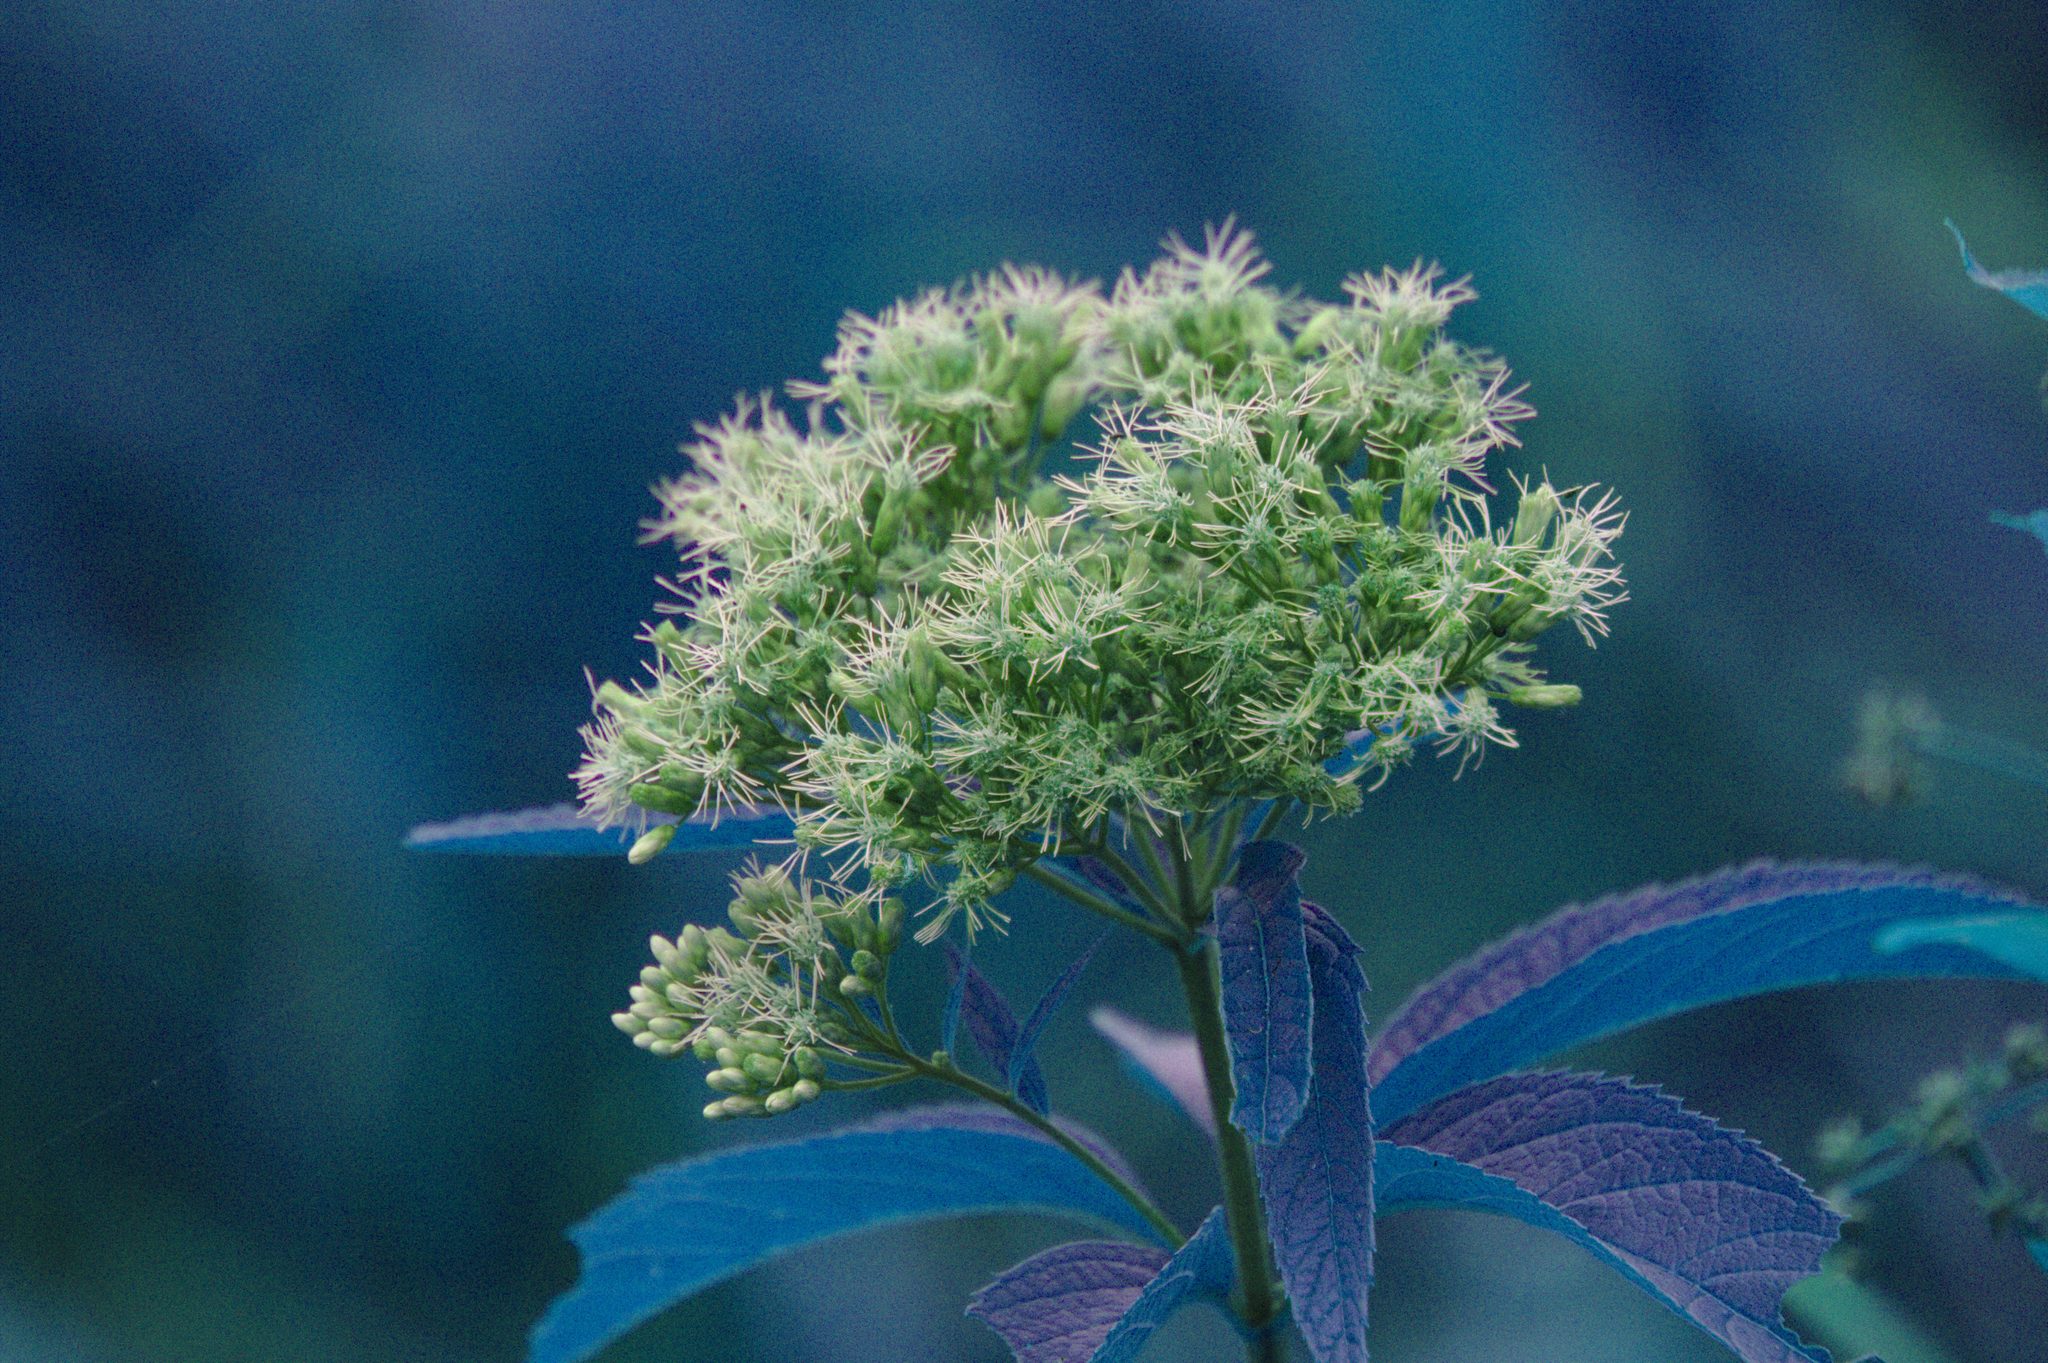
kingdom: Plantae
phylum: Tracheophyta
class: Magnoliopsida
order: Asterales
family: Asteraceae
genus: Eutrochium
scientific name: Eutrochium maculatum
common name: Spotted joe pye weed
